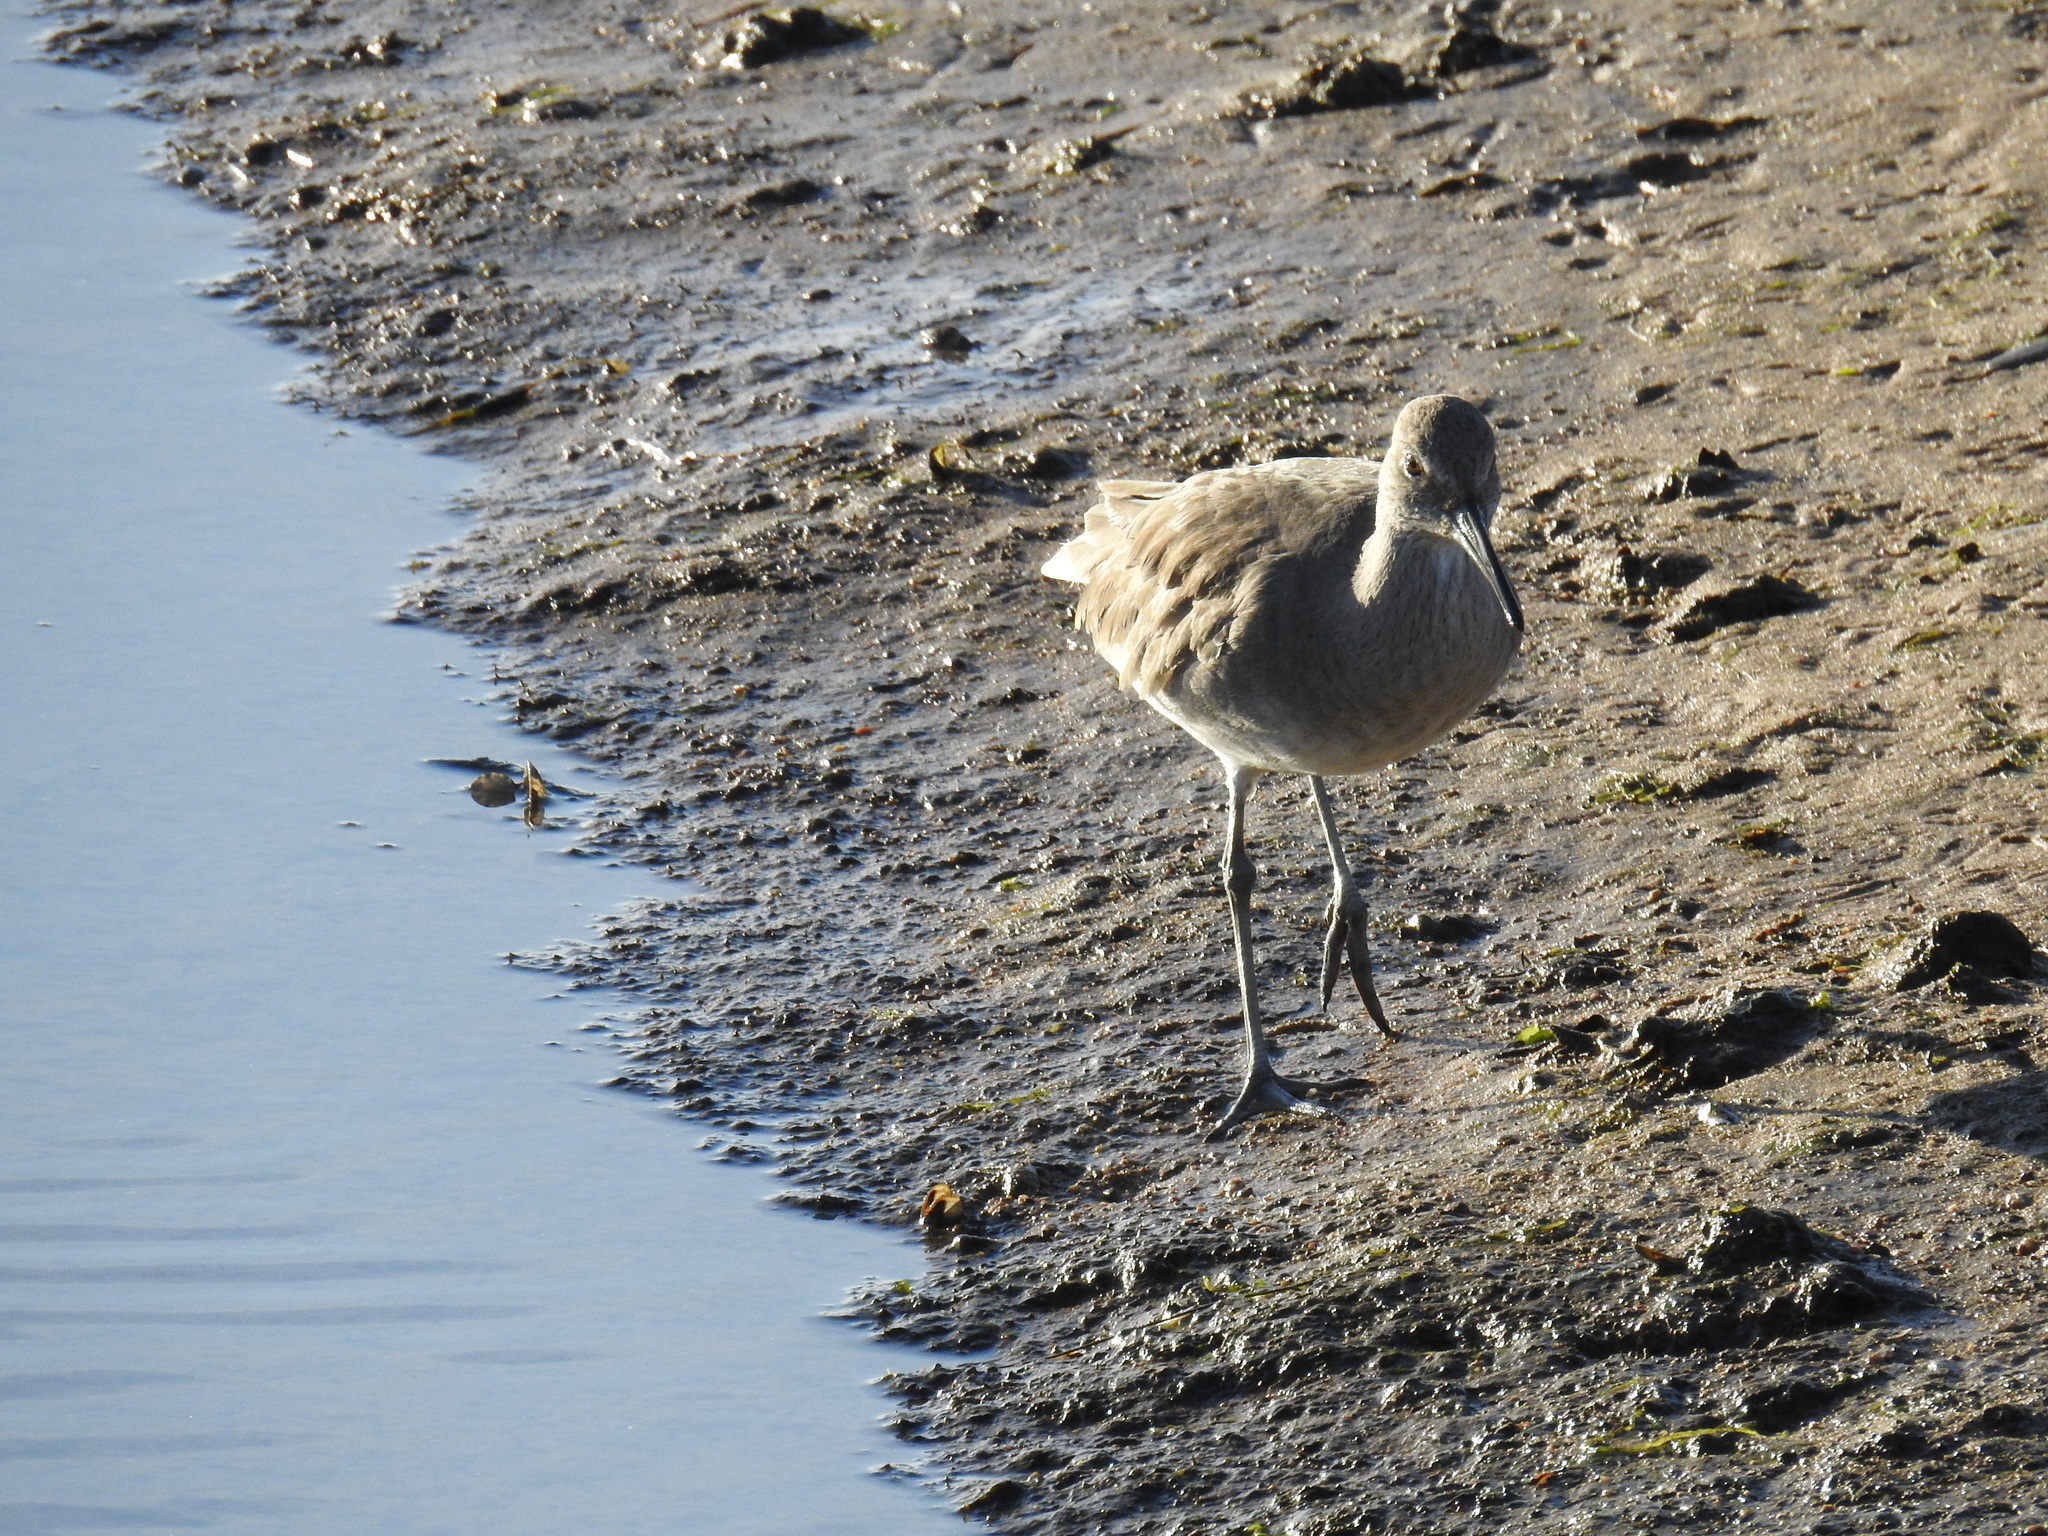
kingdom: Animalia
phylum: Chordata
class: Aves
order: Charadriiformes
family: Scolopacidae
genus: Tringa
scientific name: Tringa semipalmata
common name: Willet
